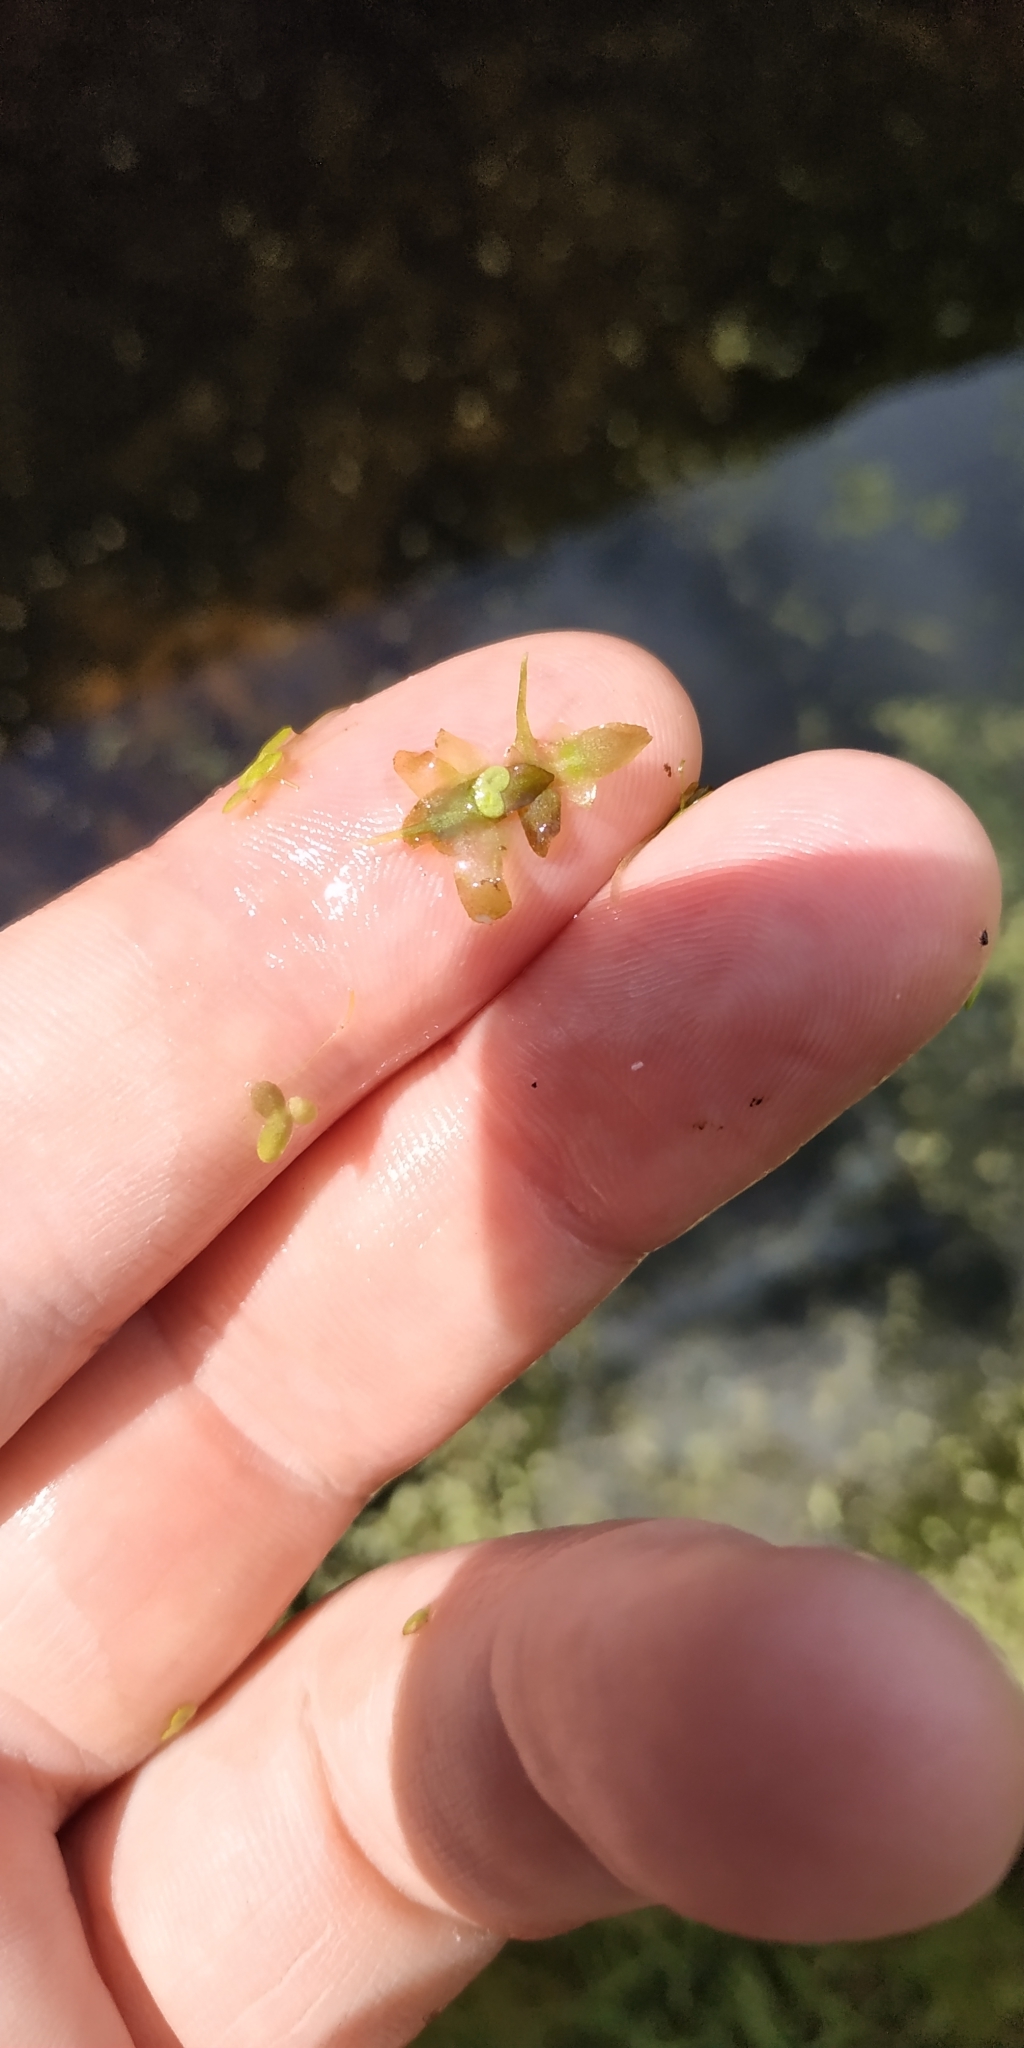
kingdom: Plantae
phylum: Tracheophyta
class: Liliopsida
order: Alismatales
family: Araceae
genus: Lemna
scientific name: Lemna trisulca
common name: Ivy-leaved duckweed
